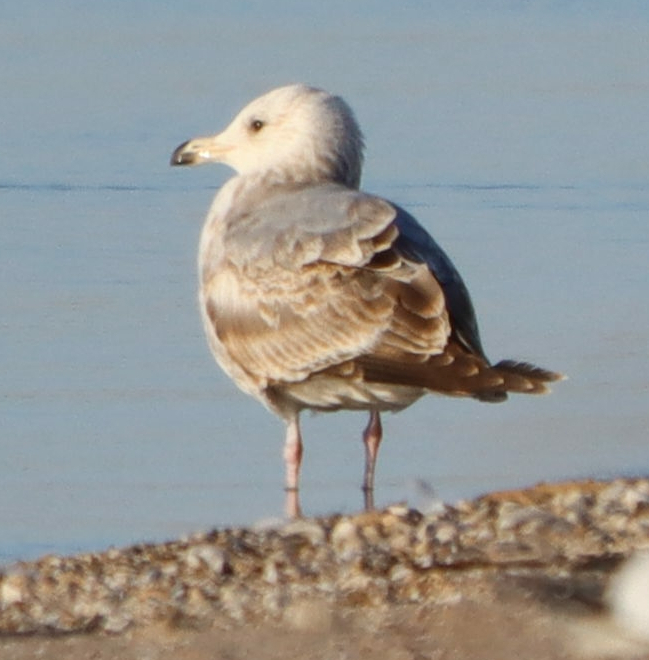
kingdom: Animalia
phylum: Chordata
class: Aves
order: Charadriiformes
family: Laridae
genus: Larus
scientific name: Larus argentatus
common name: Herring gull
